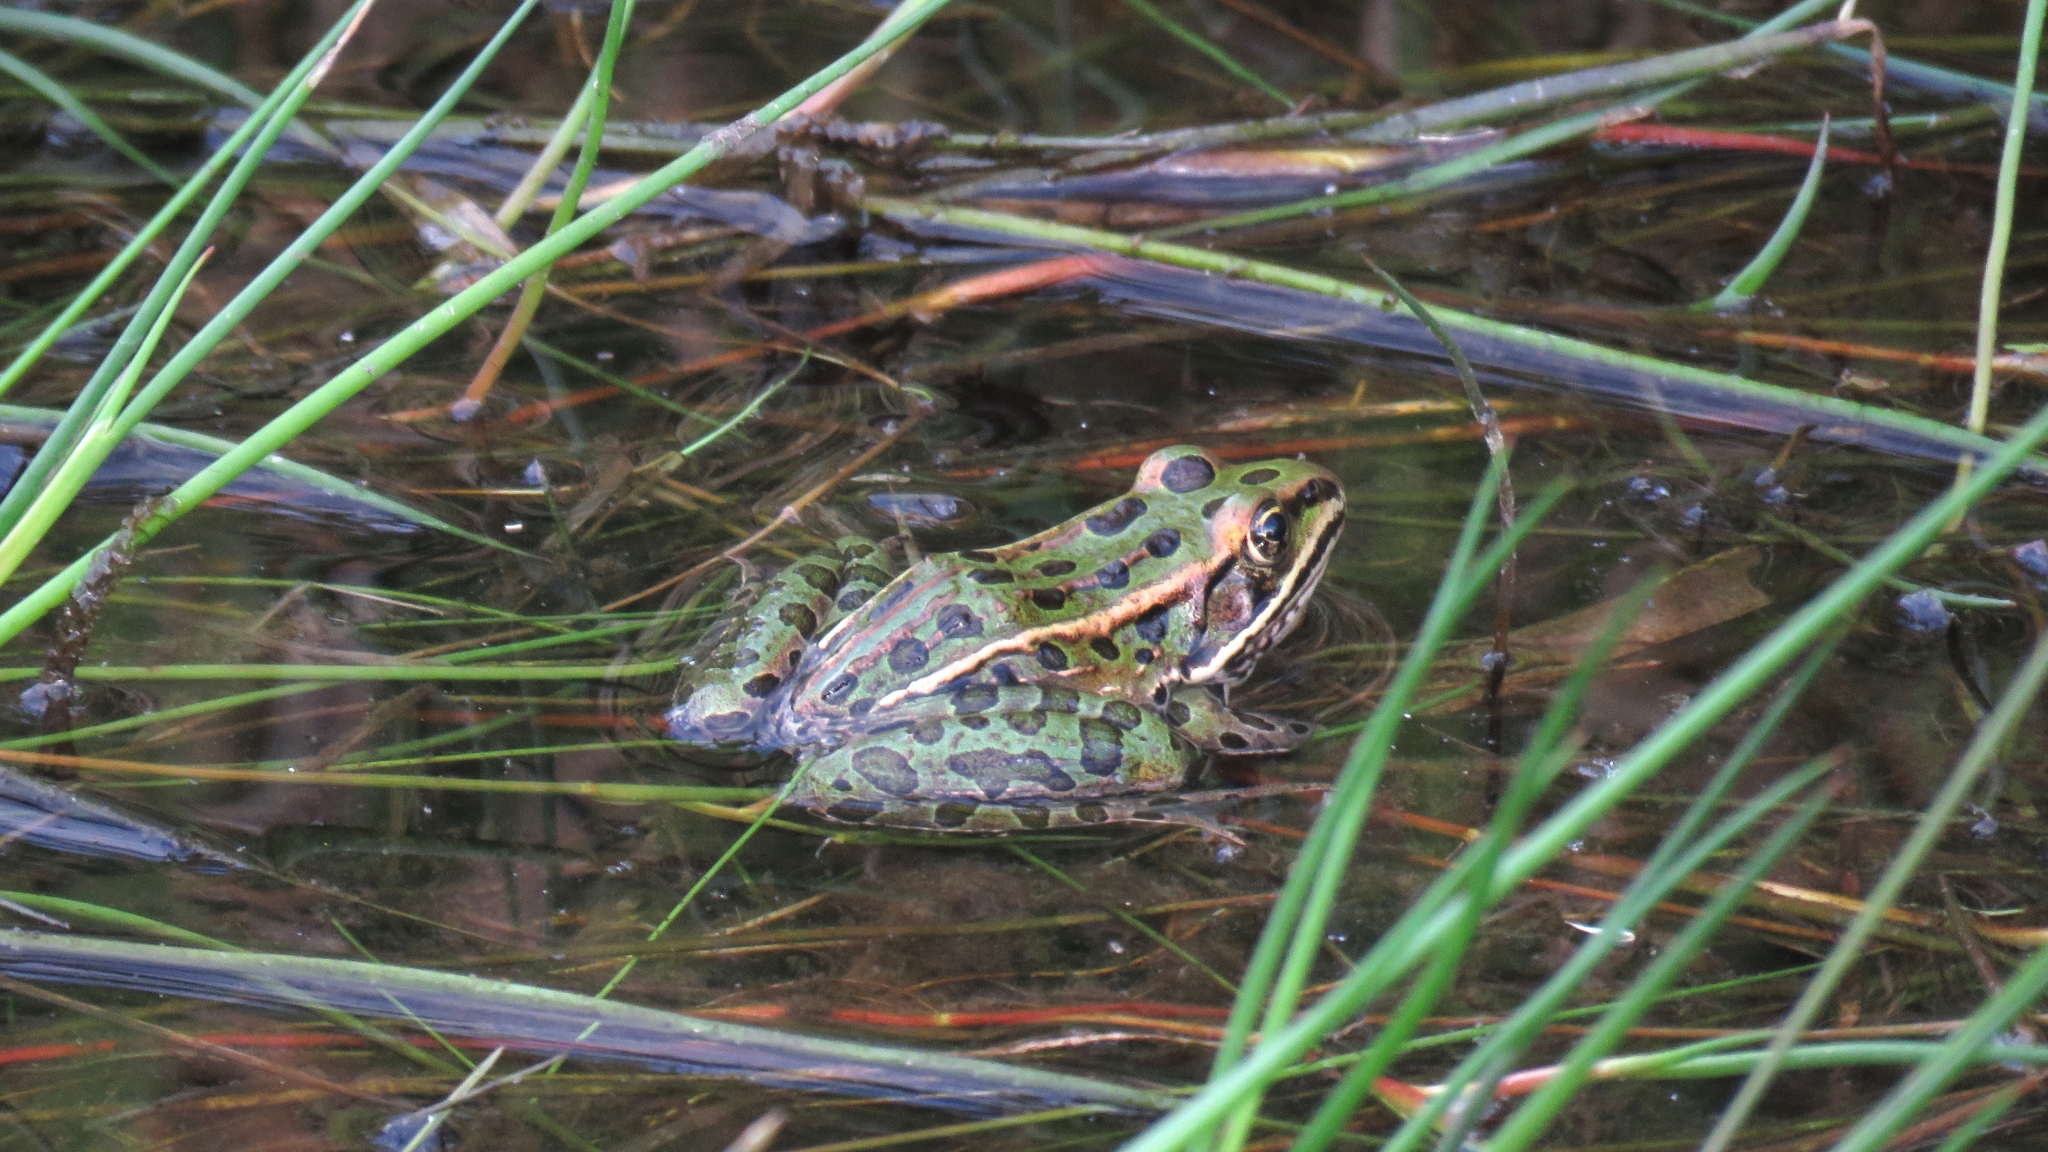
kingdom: Animalia
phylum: Chordata
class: Amphibia
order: Anura
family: Ranidae
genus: Lithobates
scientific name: Lithobates pipiens
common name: Northern leopard frog
